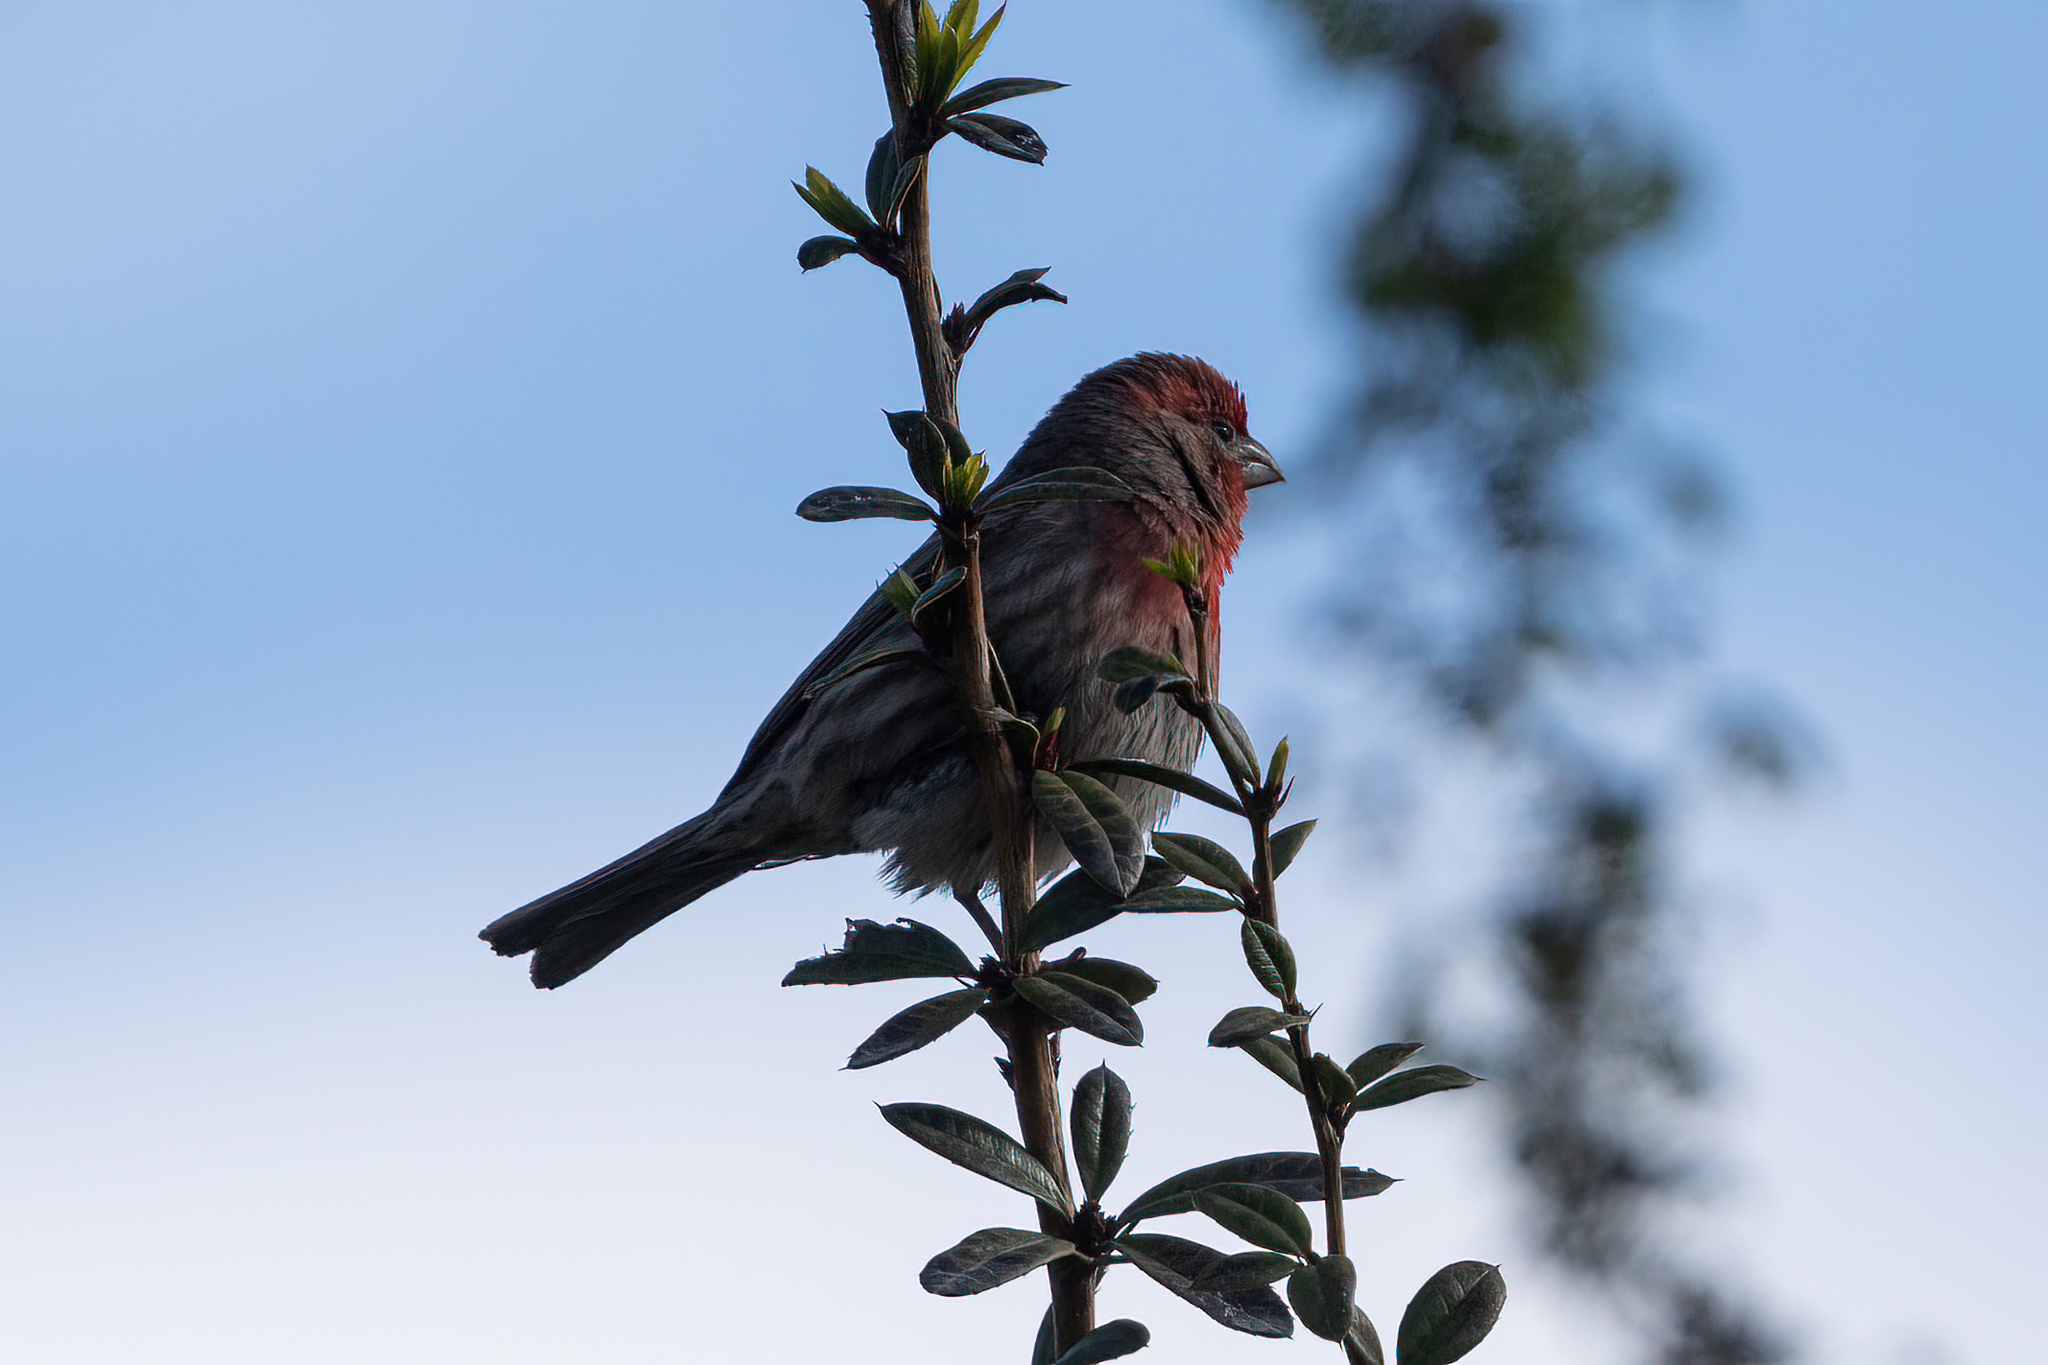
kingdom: Animalia
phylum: Chordata
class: Aves
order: Passeriformes
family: Fringillidae
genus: Haemorhous
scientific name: Haemorhous mexicanus
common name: House finch
